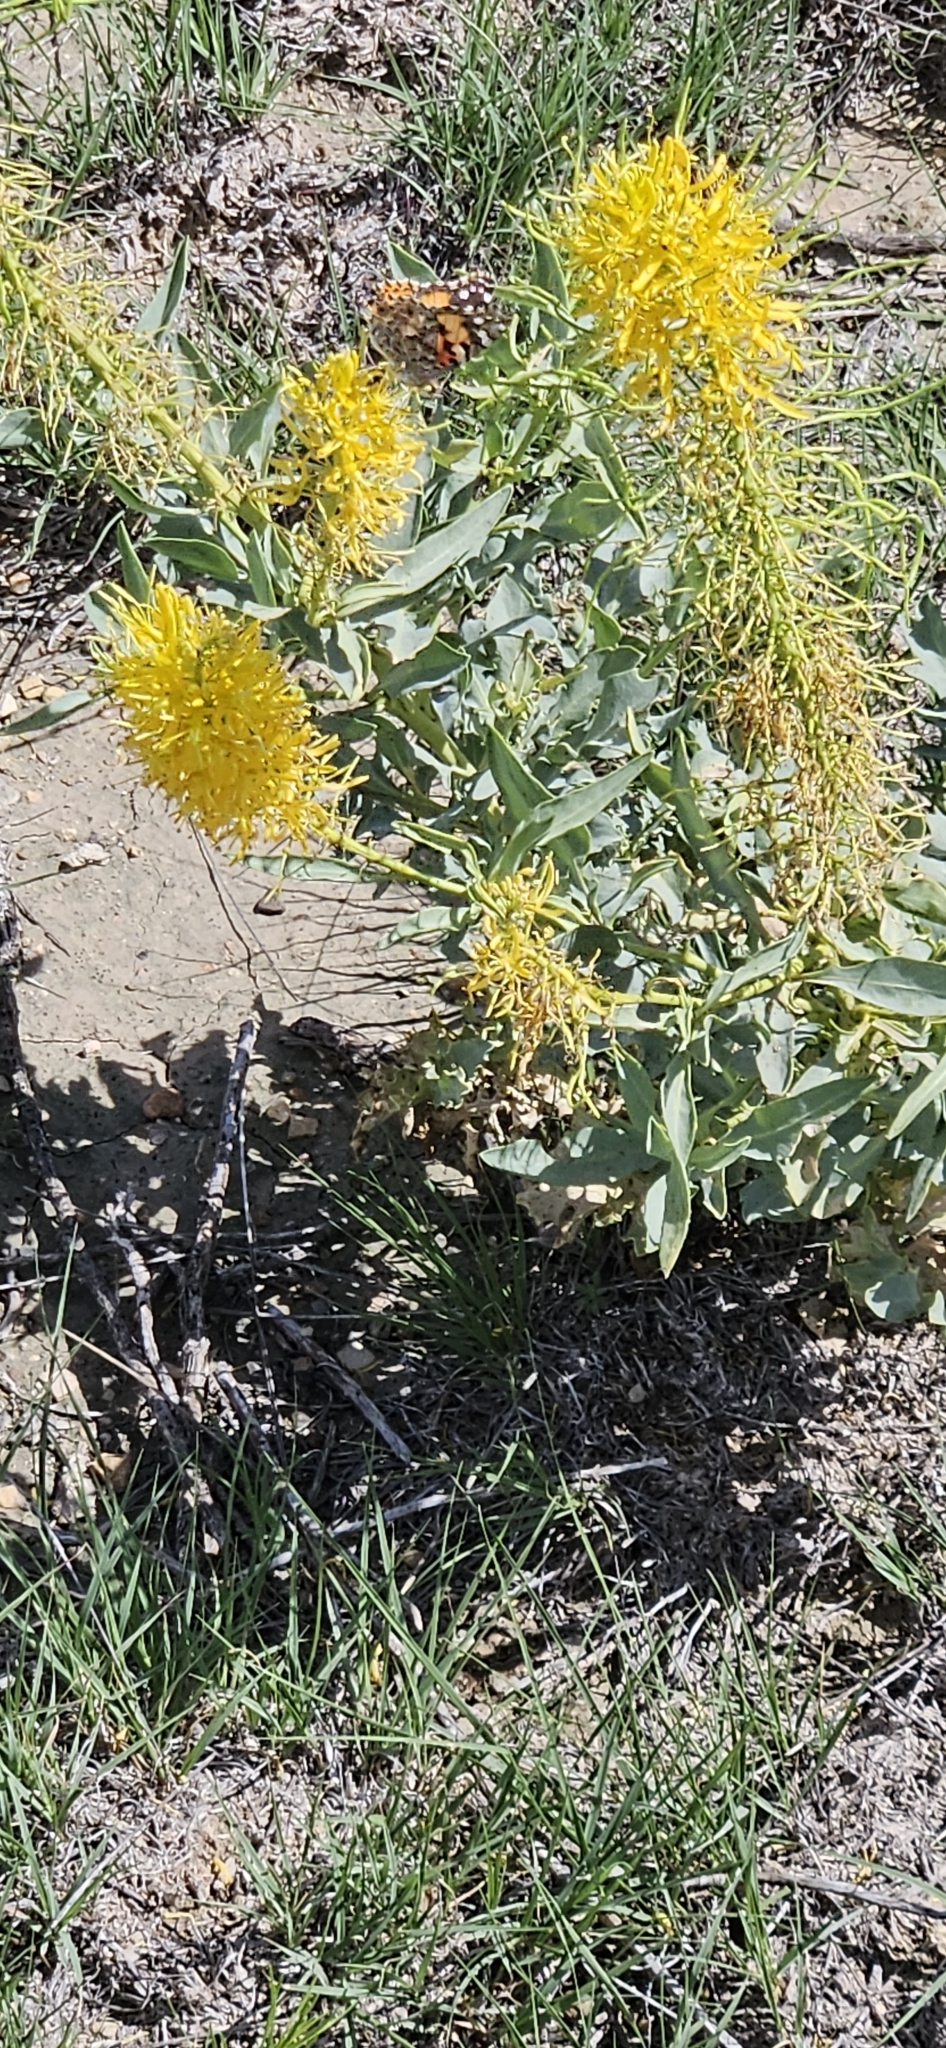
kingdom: Animalia
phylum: Arthropoda
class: Insecta
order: Lepidoptera
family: Nymphalidae
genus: Vanessa
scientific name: Vanessa cardui
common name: Painted lady
